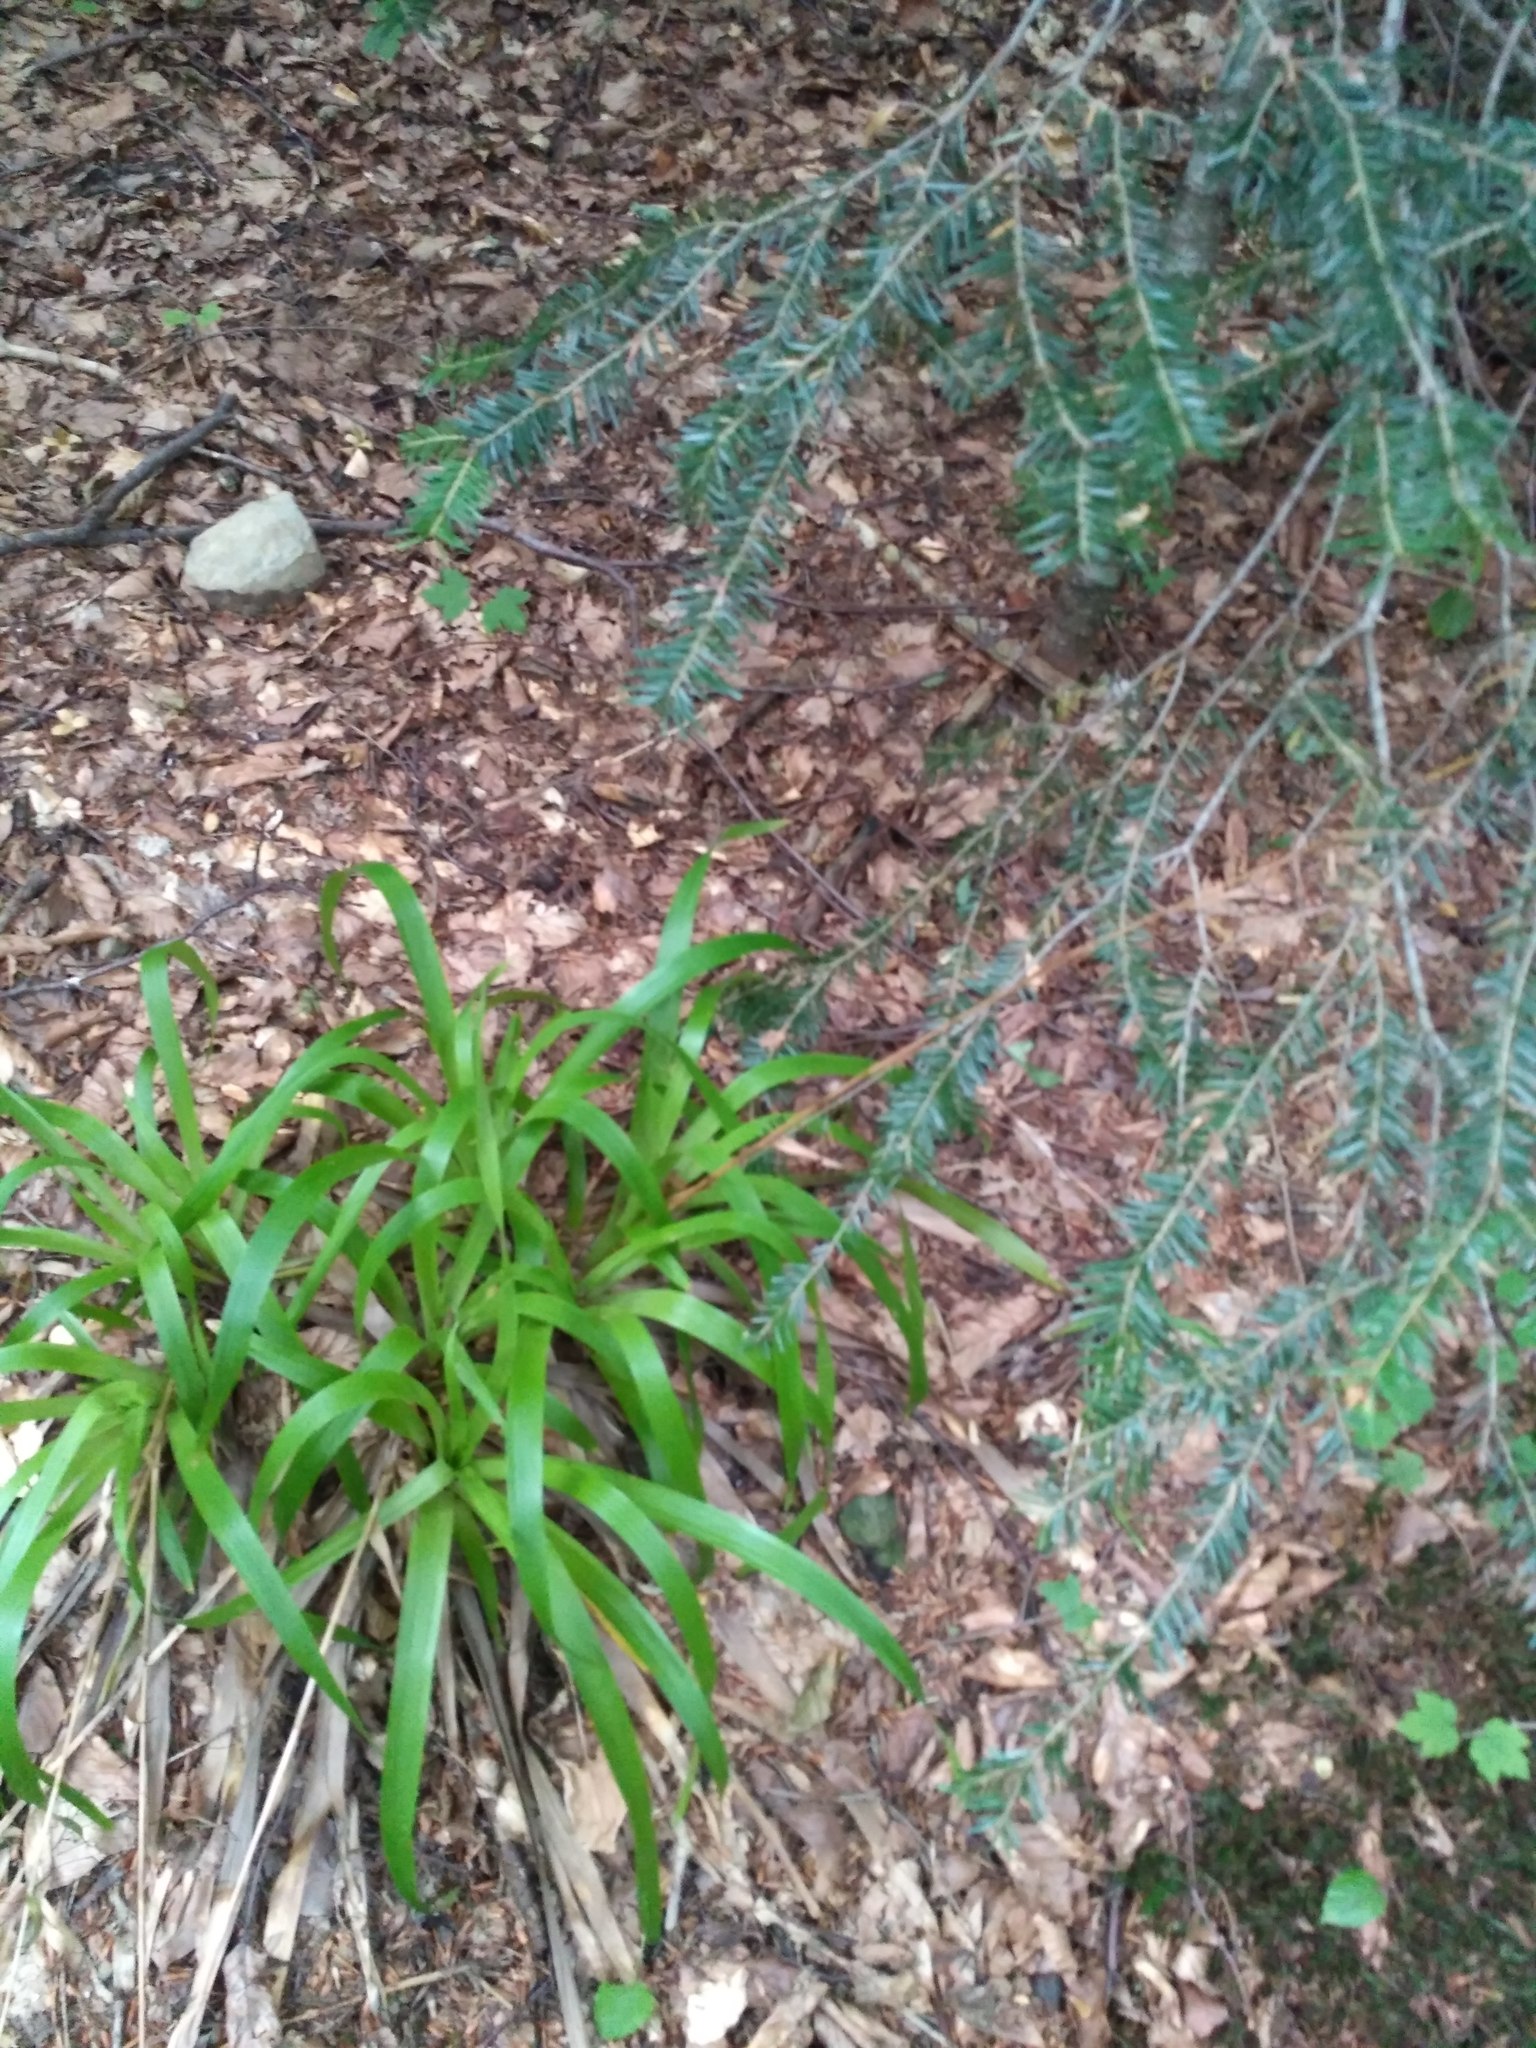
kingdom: Plantae
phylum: Tracheophyta
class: Liliopsida
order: Poales
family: Juncaceae
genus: Luzula
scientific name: Luzula sylvatica
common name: Great wood-rush
